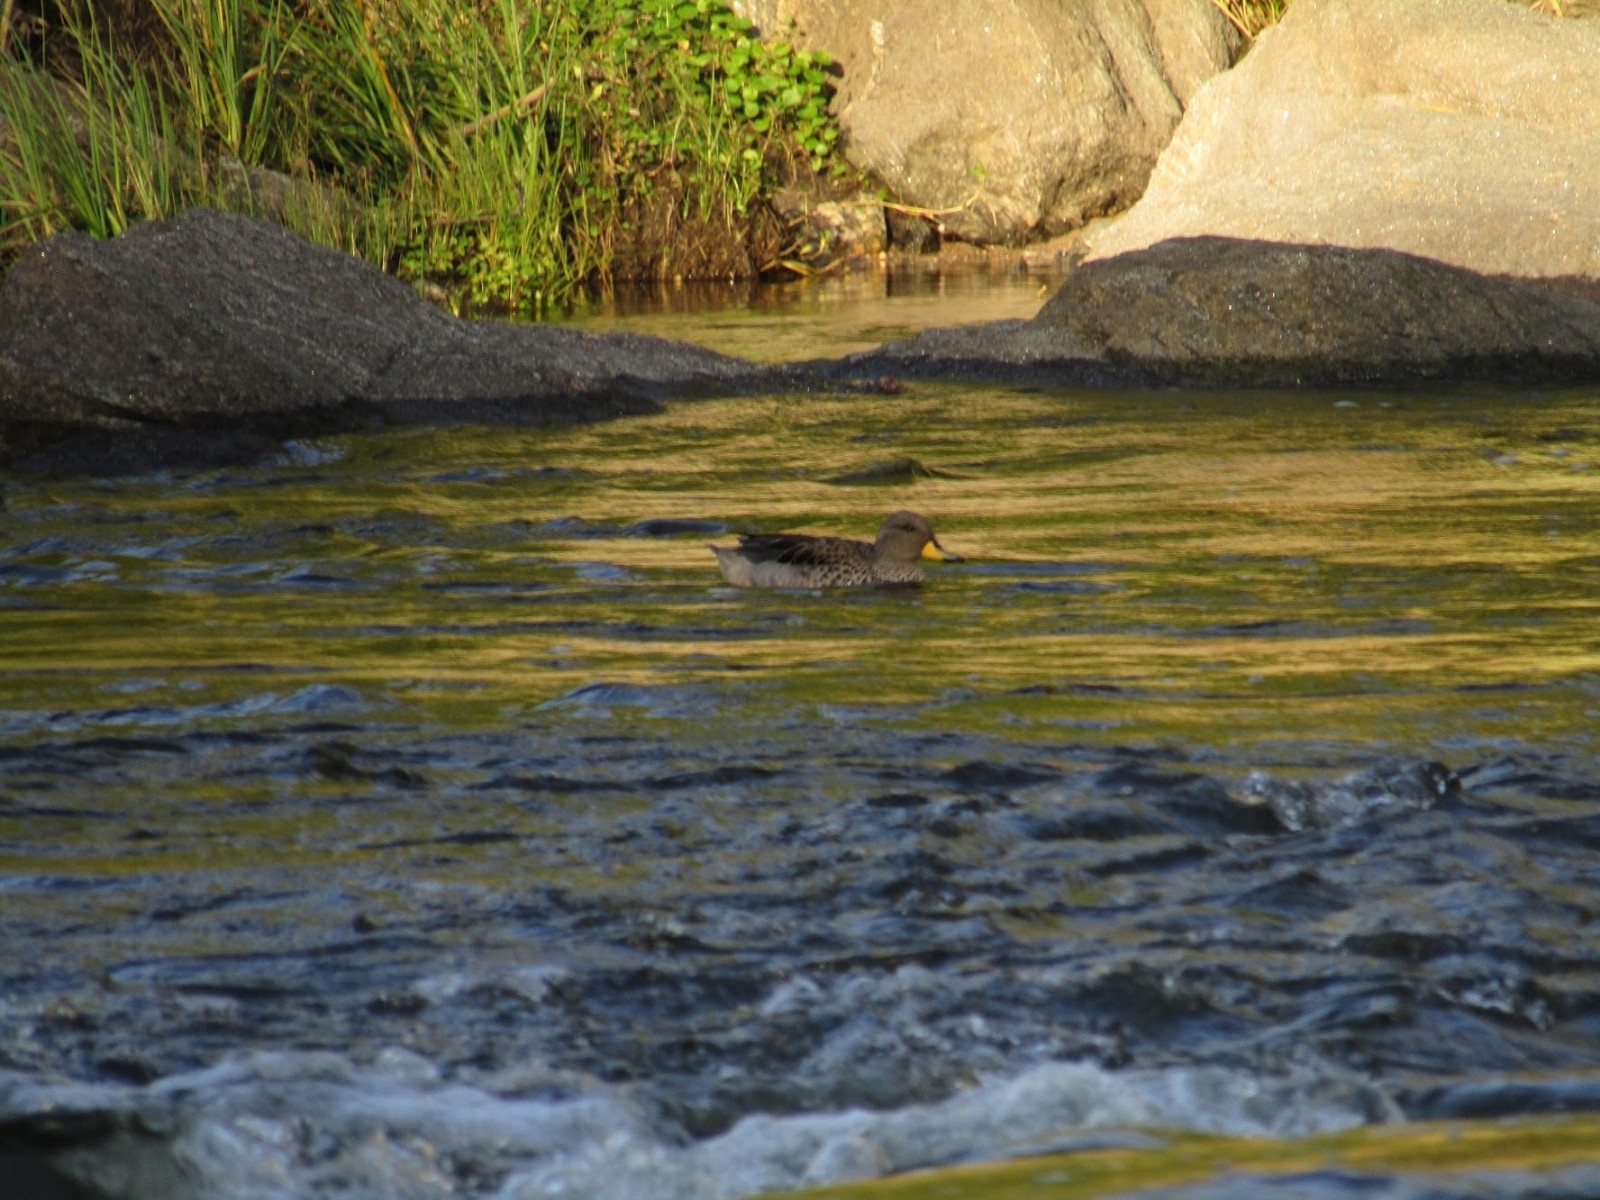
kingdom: Animalia
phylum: Chordata
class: Aves
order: Anseriformes
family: Anatidae
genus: Anas
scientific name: Anas flavirostris
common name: Yellow-billed teal
